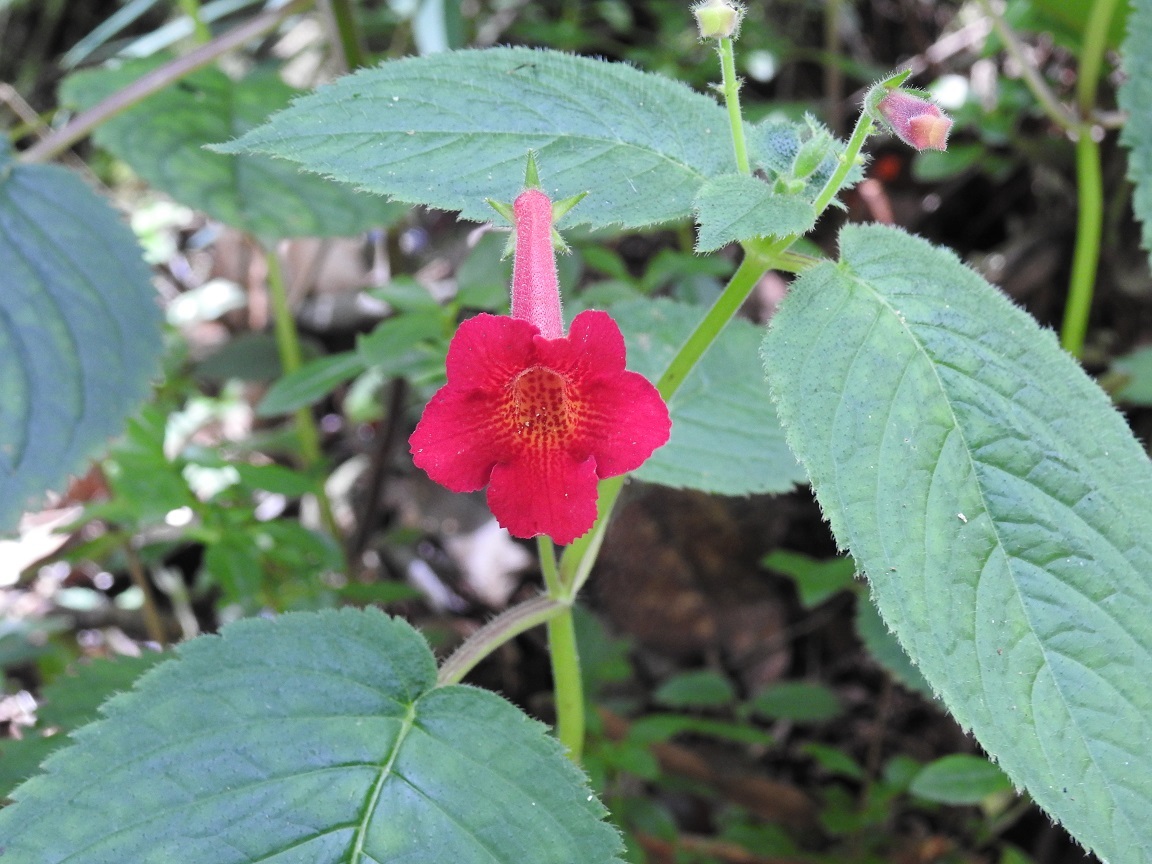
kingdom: Plantae
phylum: Tracheophyta
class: Magnoliopsida
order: Lamiales
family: Gesneriaceae
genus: Achimenes
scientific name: Achimenes pedunculata
